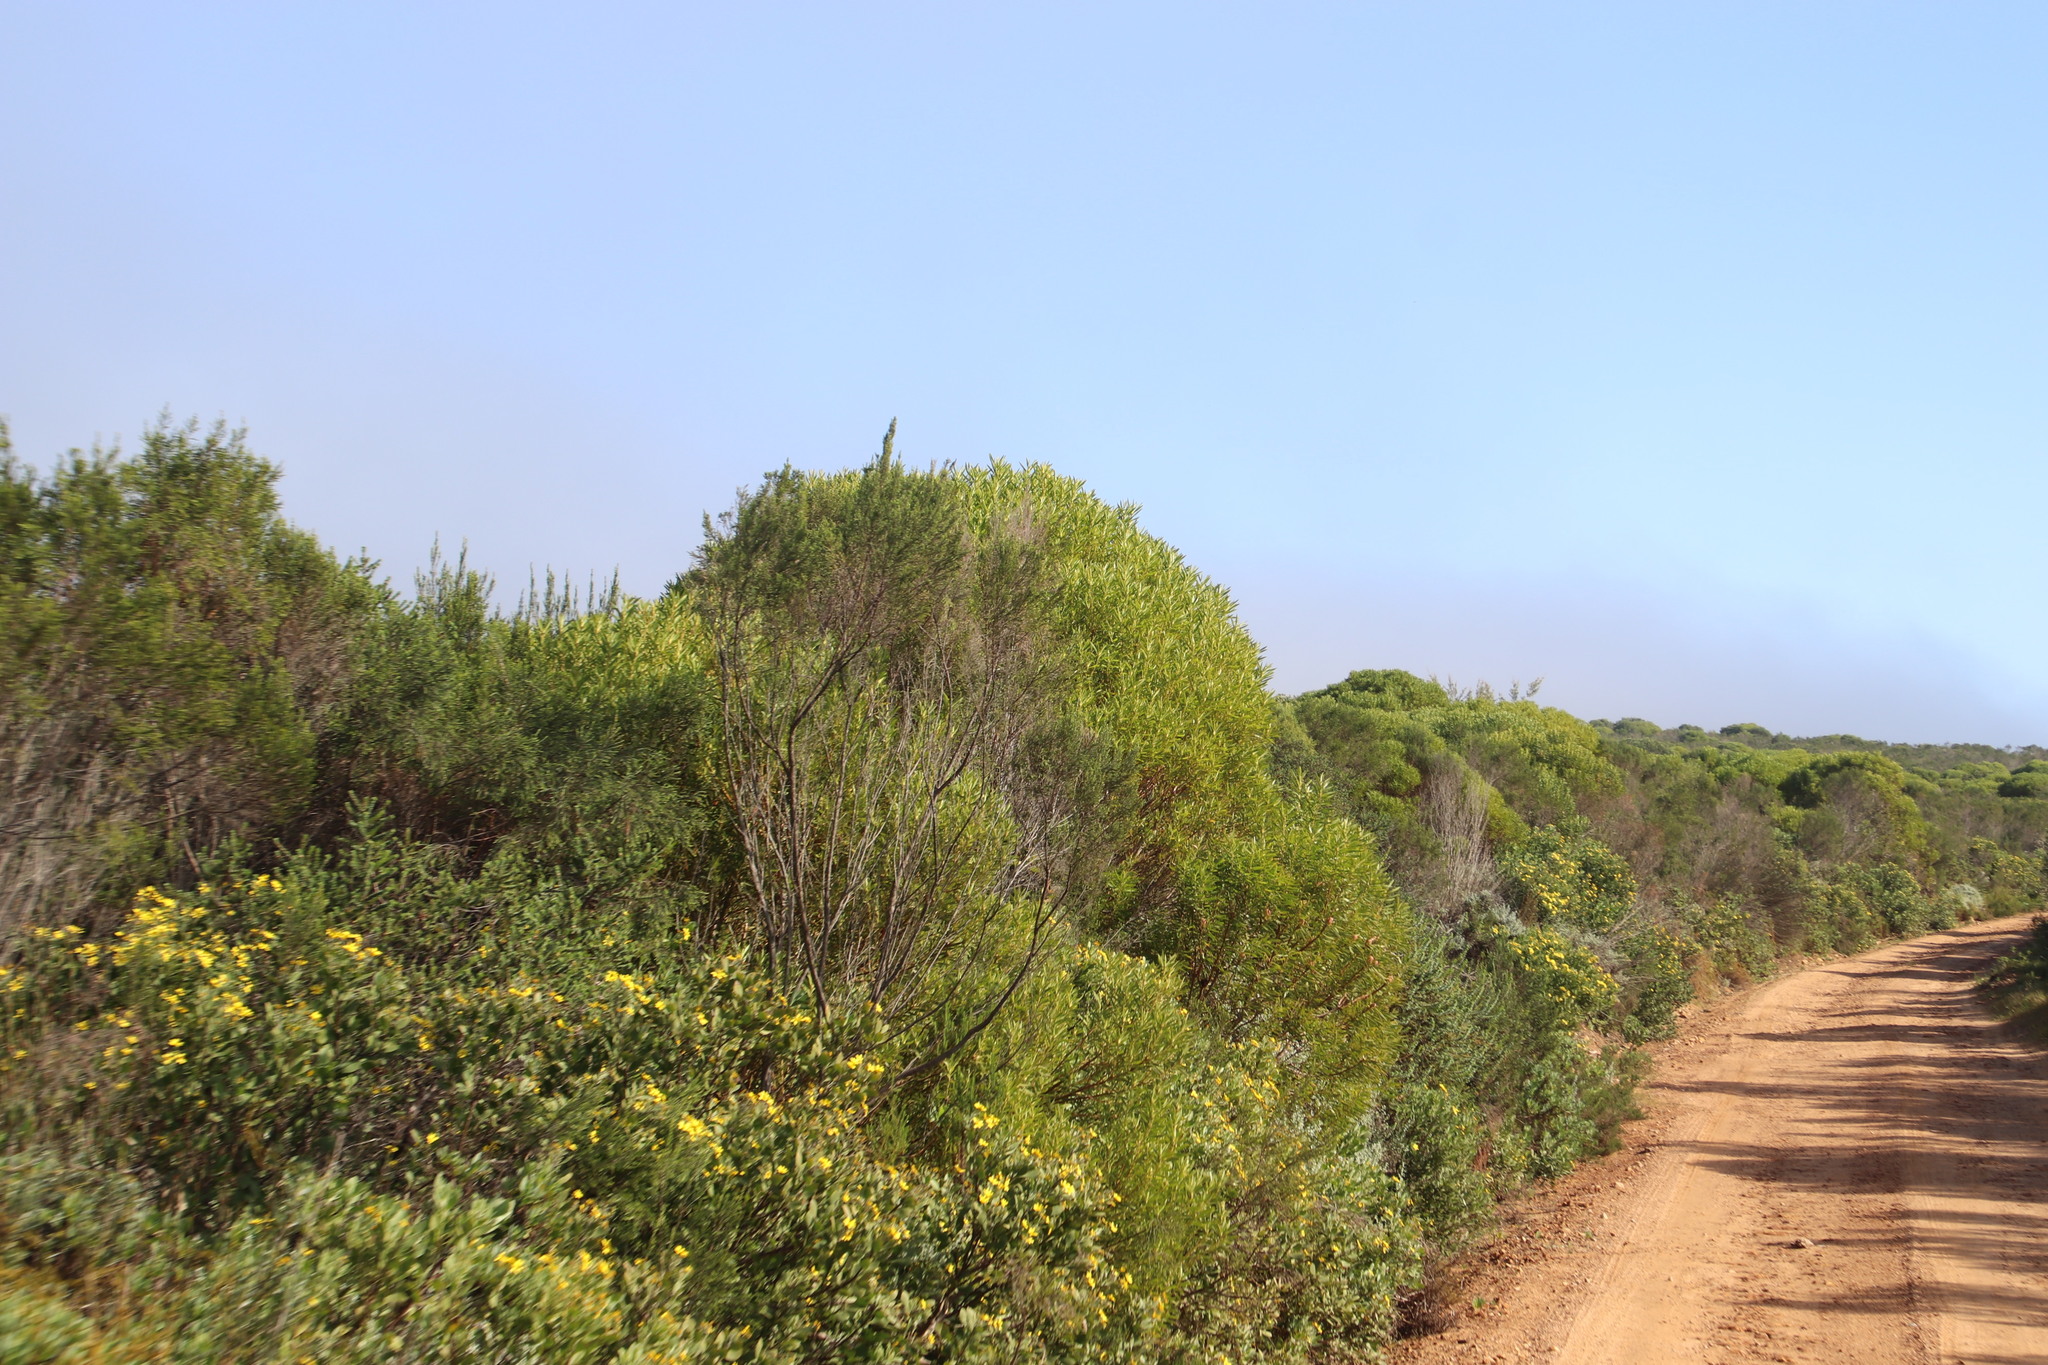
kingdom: Plantae
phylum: Tracheophyta
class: Magnoliopsida
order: Proteales
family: Proteaceae
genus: Leucadendron
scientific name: Leucadendron coniferum
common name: Dune conebush
